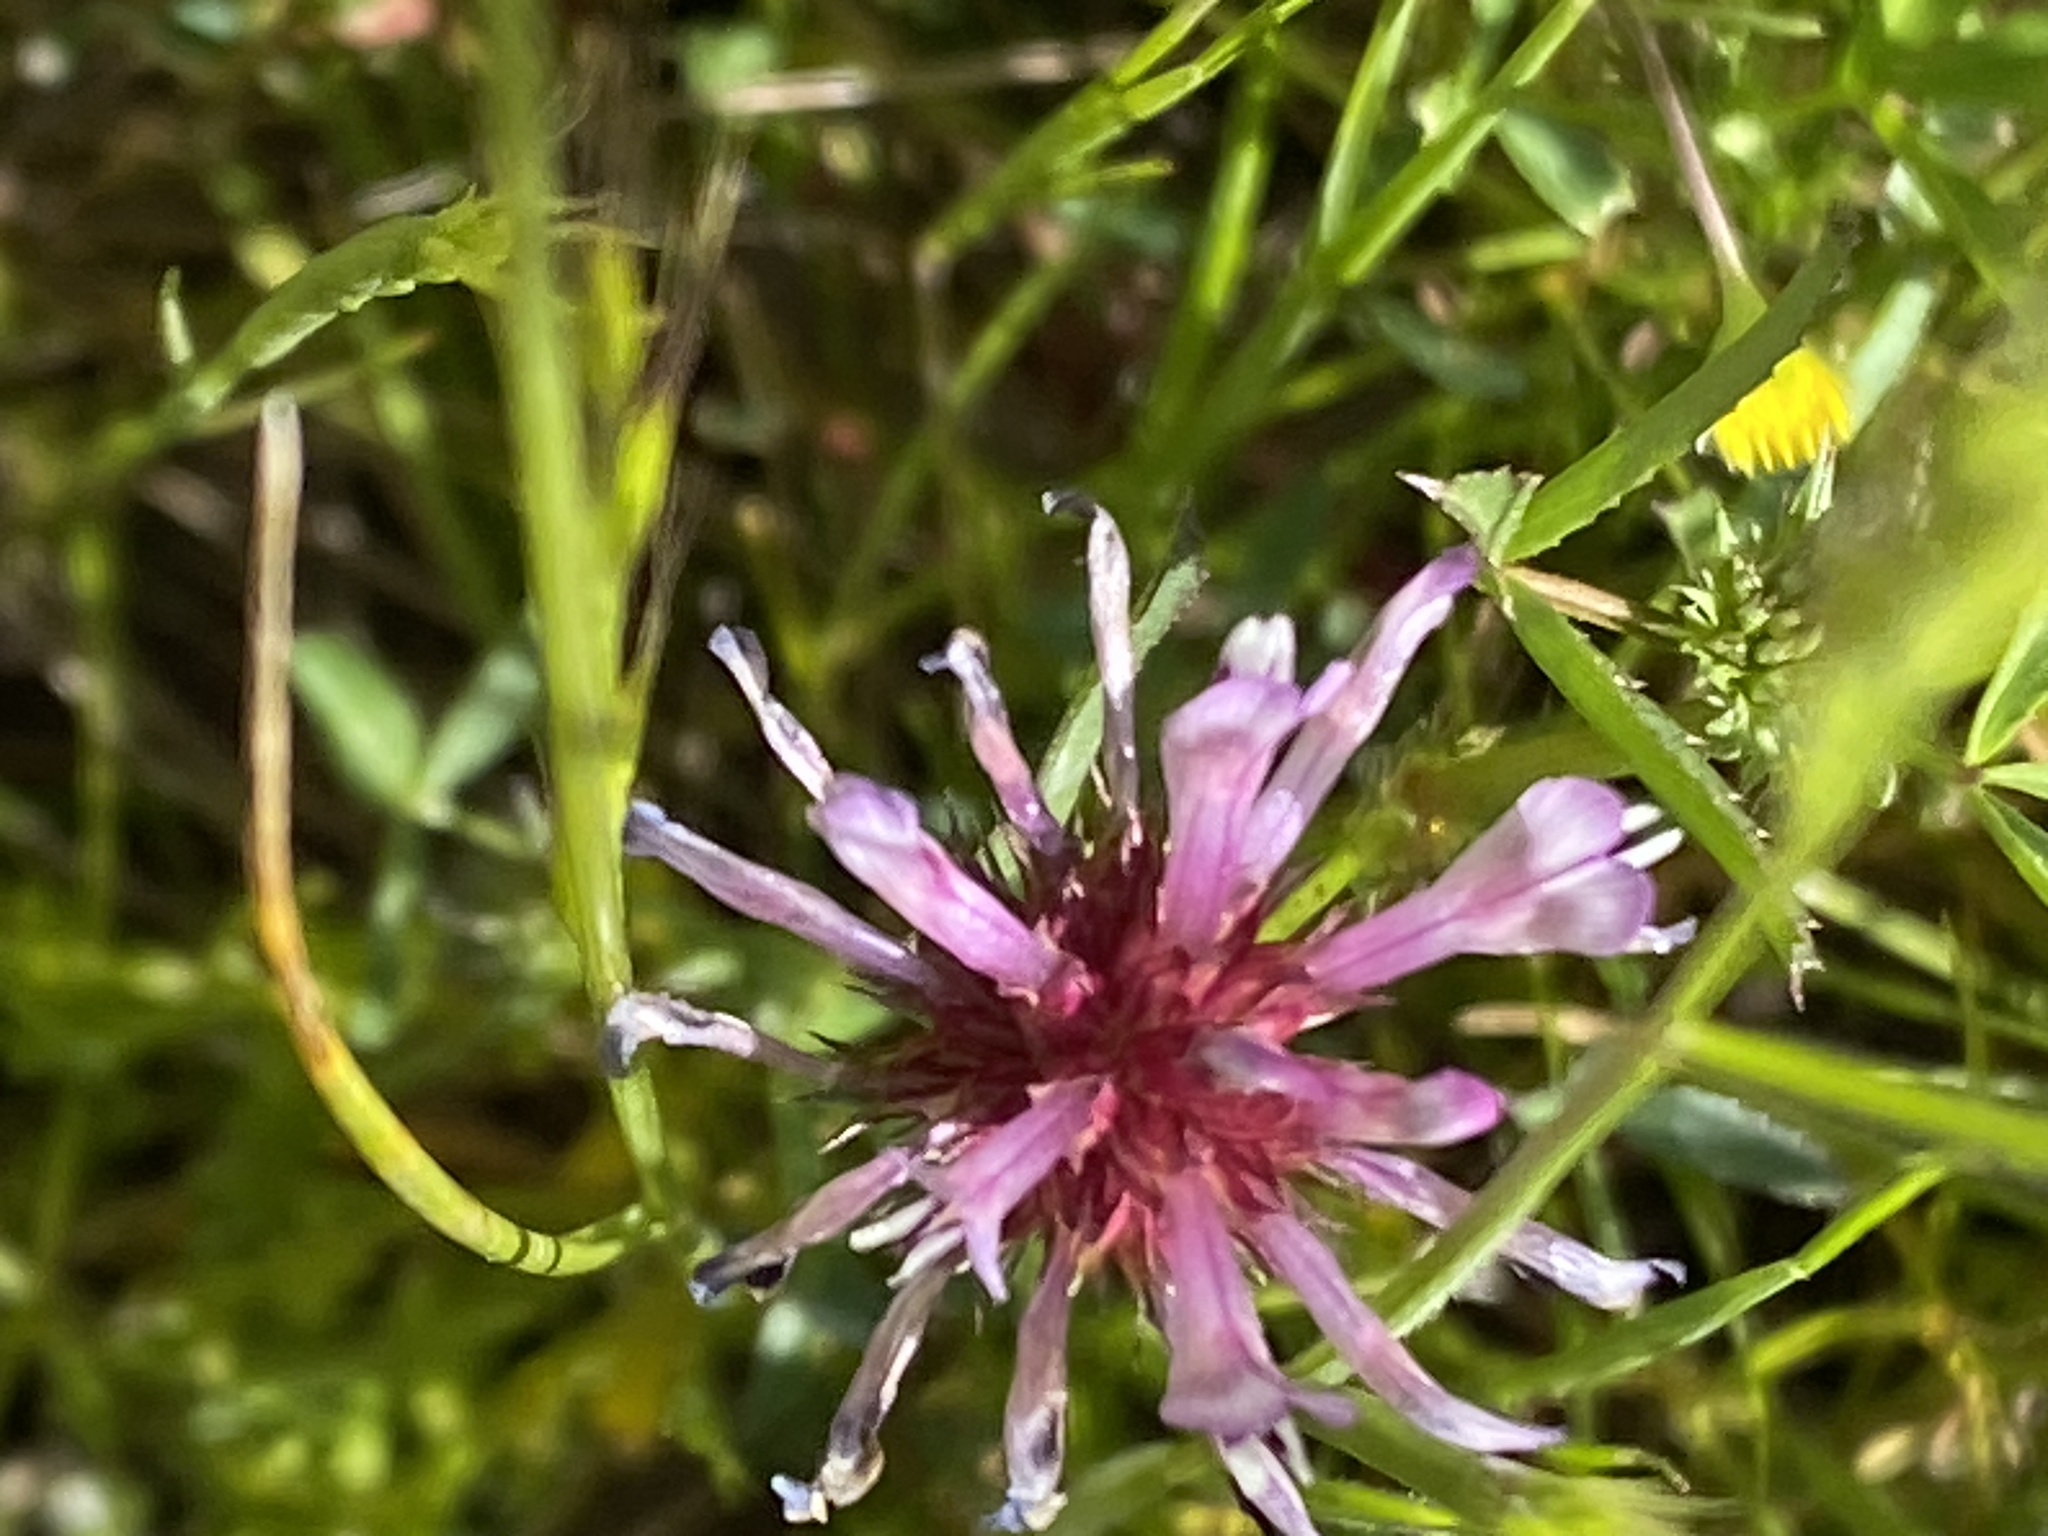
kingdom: Plantae
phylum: Tracheophyta
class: Magnoliopsida
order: Fabales
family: Fabaceae
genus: Trifolium
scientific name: Trifolium willdenovii
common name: Tomcat clover
